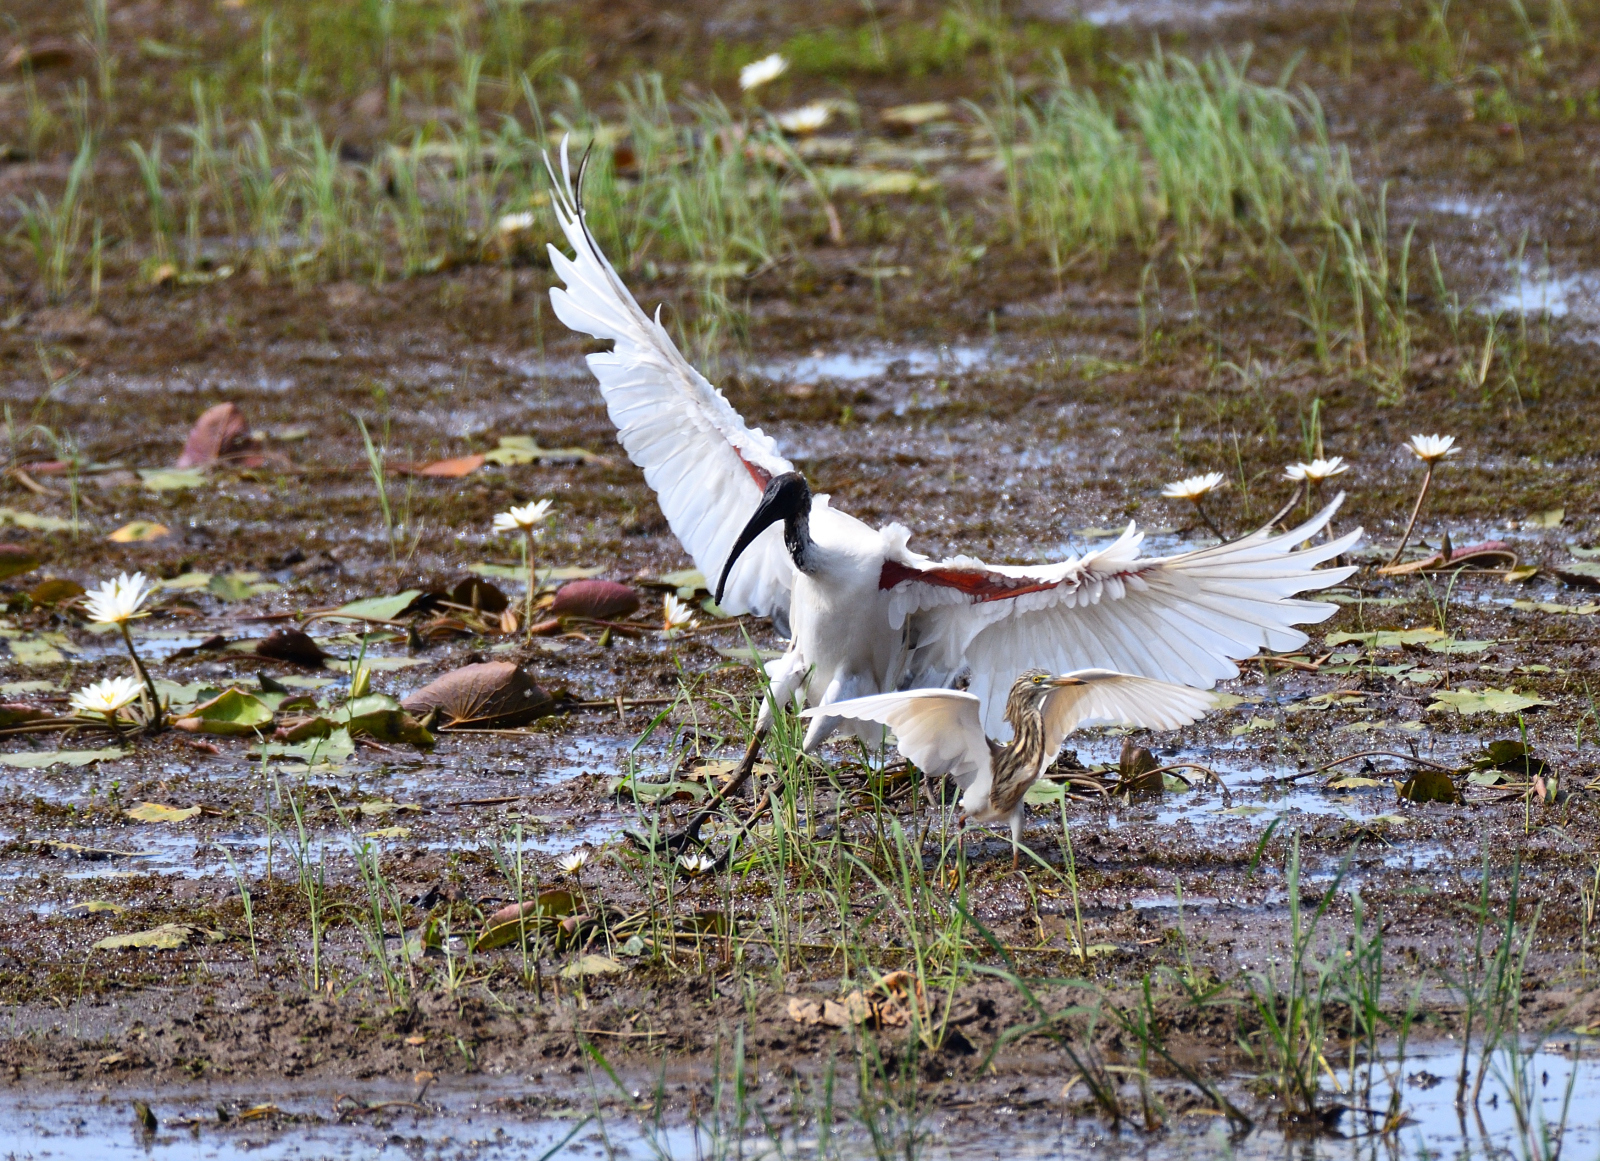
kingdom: Animalia
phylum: Chordata
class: Aves
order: Pelecaniformes
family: Threskiornithidae
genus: Threskiornis
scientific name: Threskiornis melanocephalus
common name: Black-headed ibis
